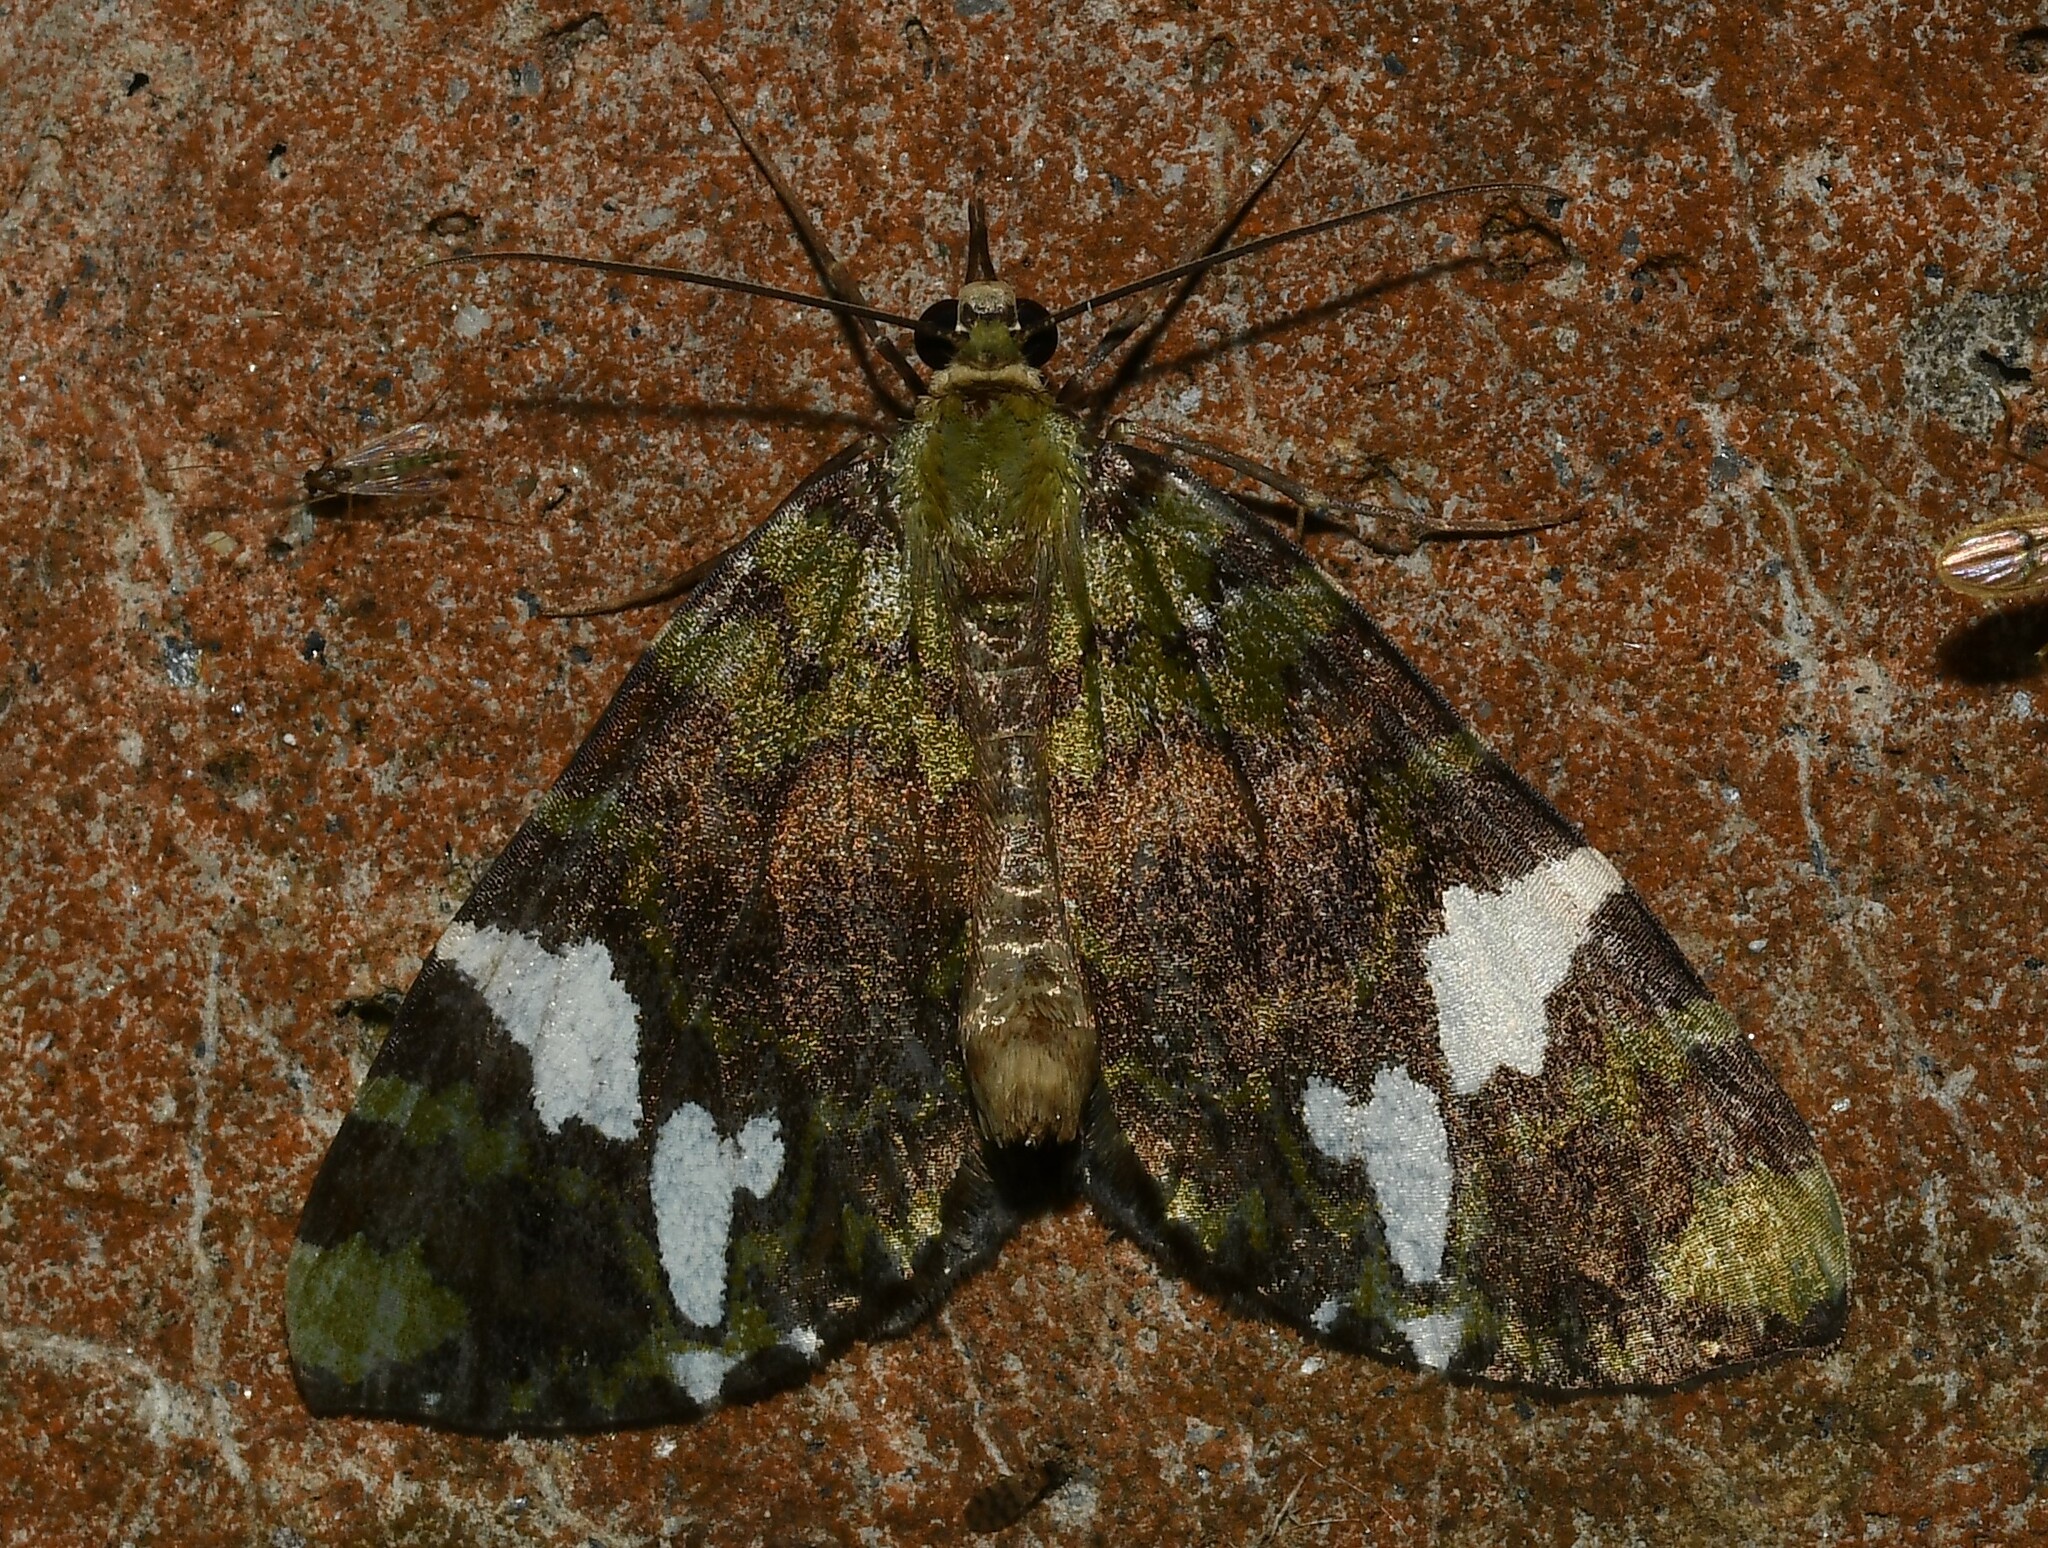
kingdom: Animalia
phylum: Arthropoda
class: Insecta
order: Lepidoptera
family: Geometridae
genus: Hydriomena
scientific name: Hydriomena polyphonta
